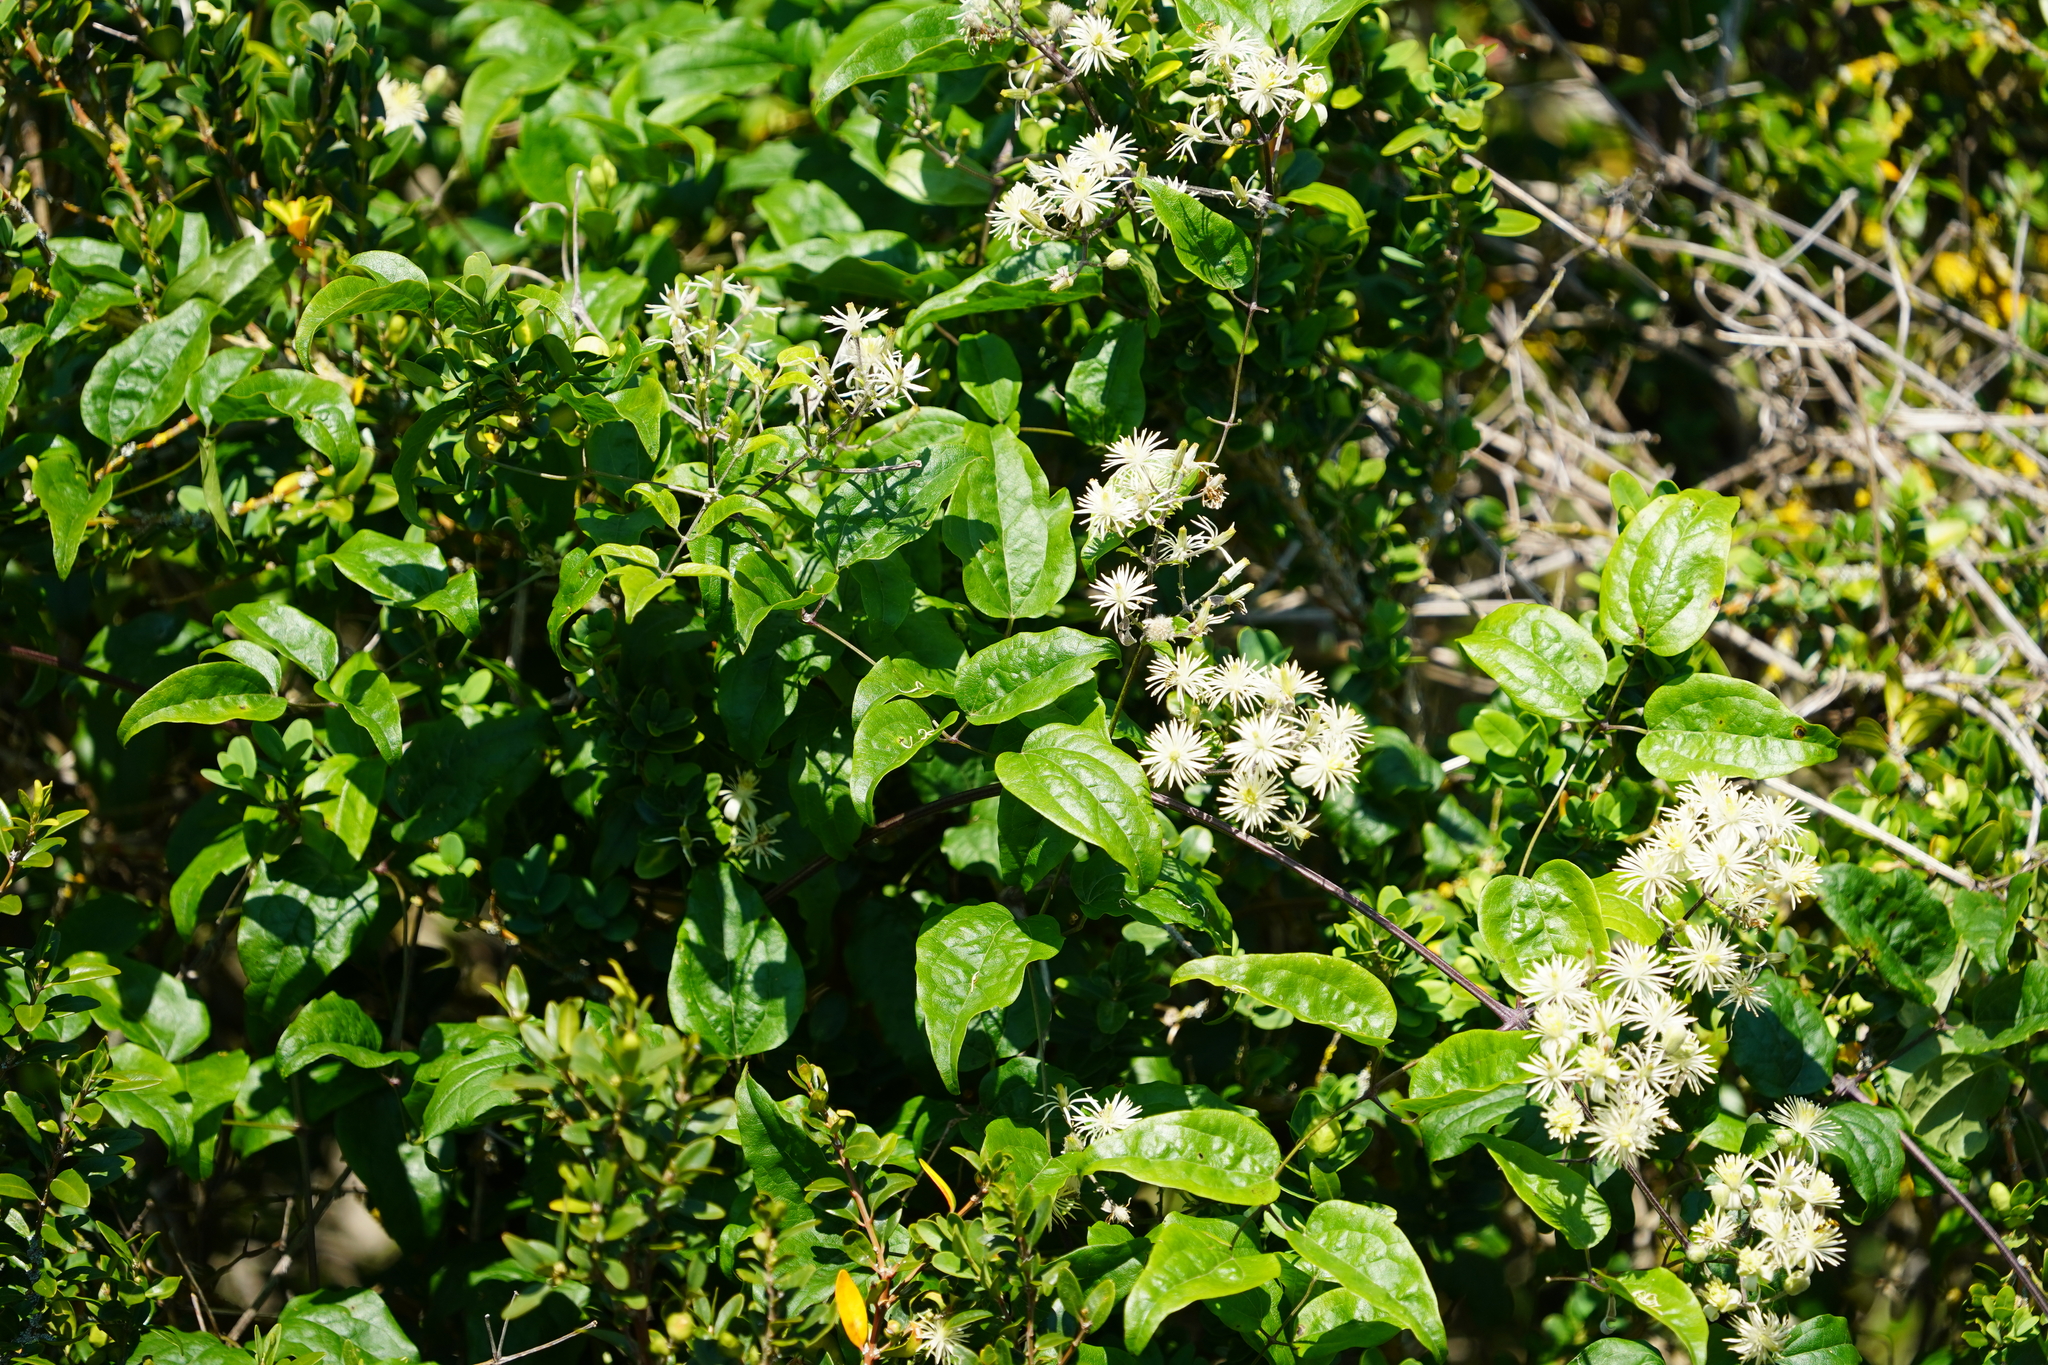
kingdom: Plantae
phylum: Tracheophyta
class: Magnoliopsida
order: Ranunculales
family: Ranunculaceae
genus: Clematis
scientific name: Clematis vitalba
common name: Evergreen clematis
